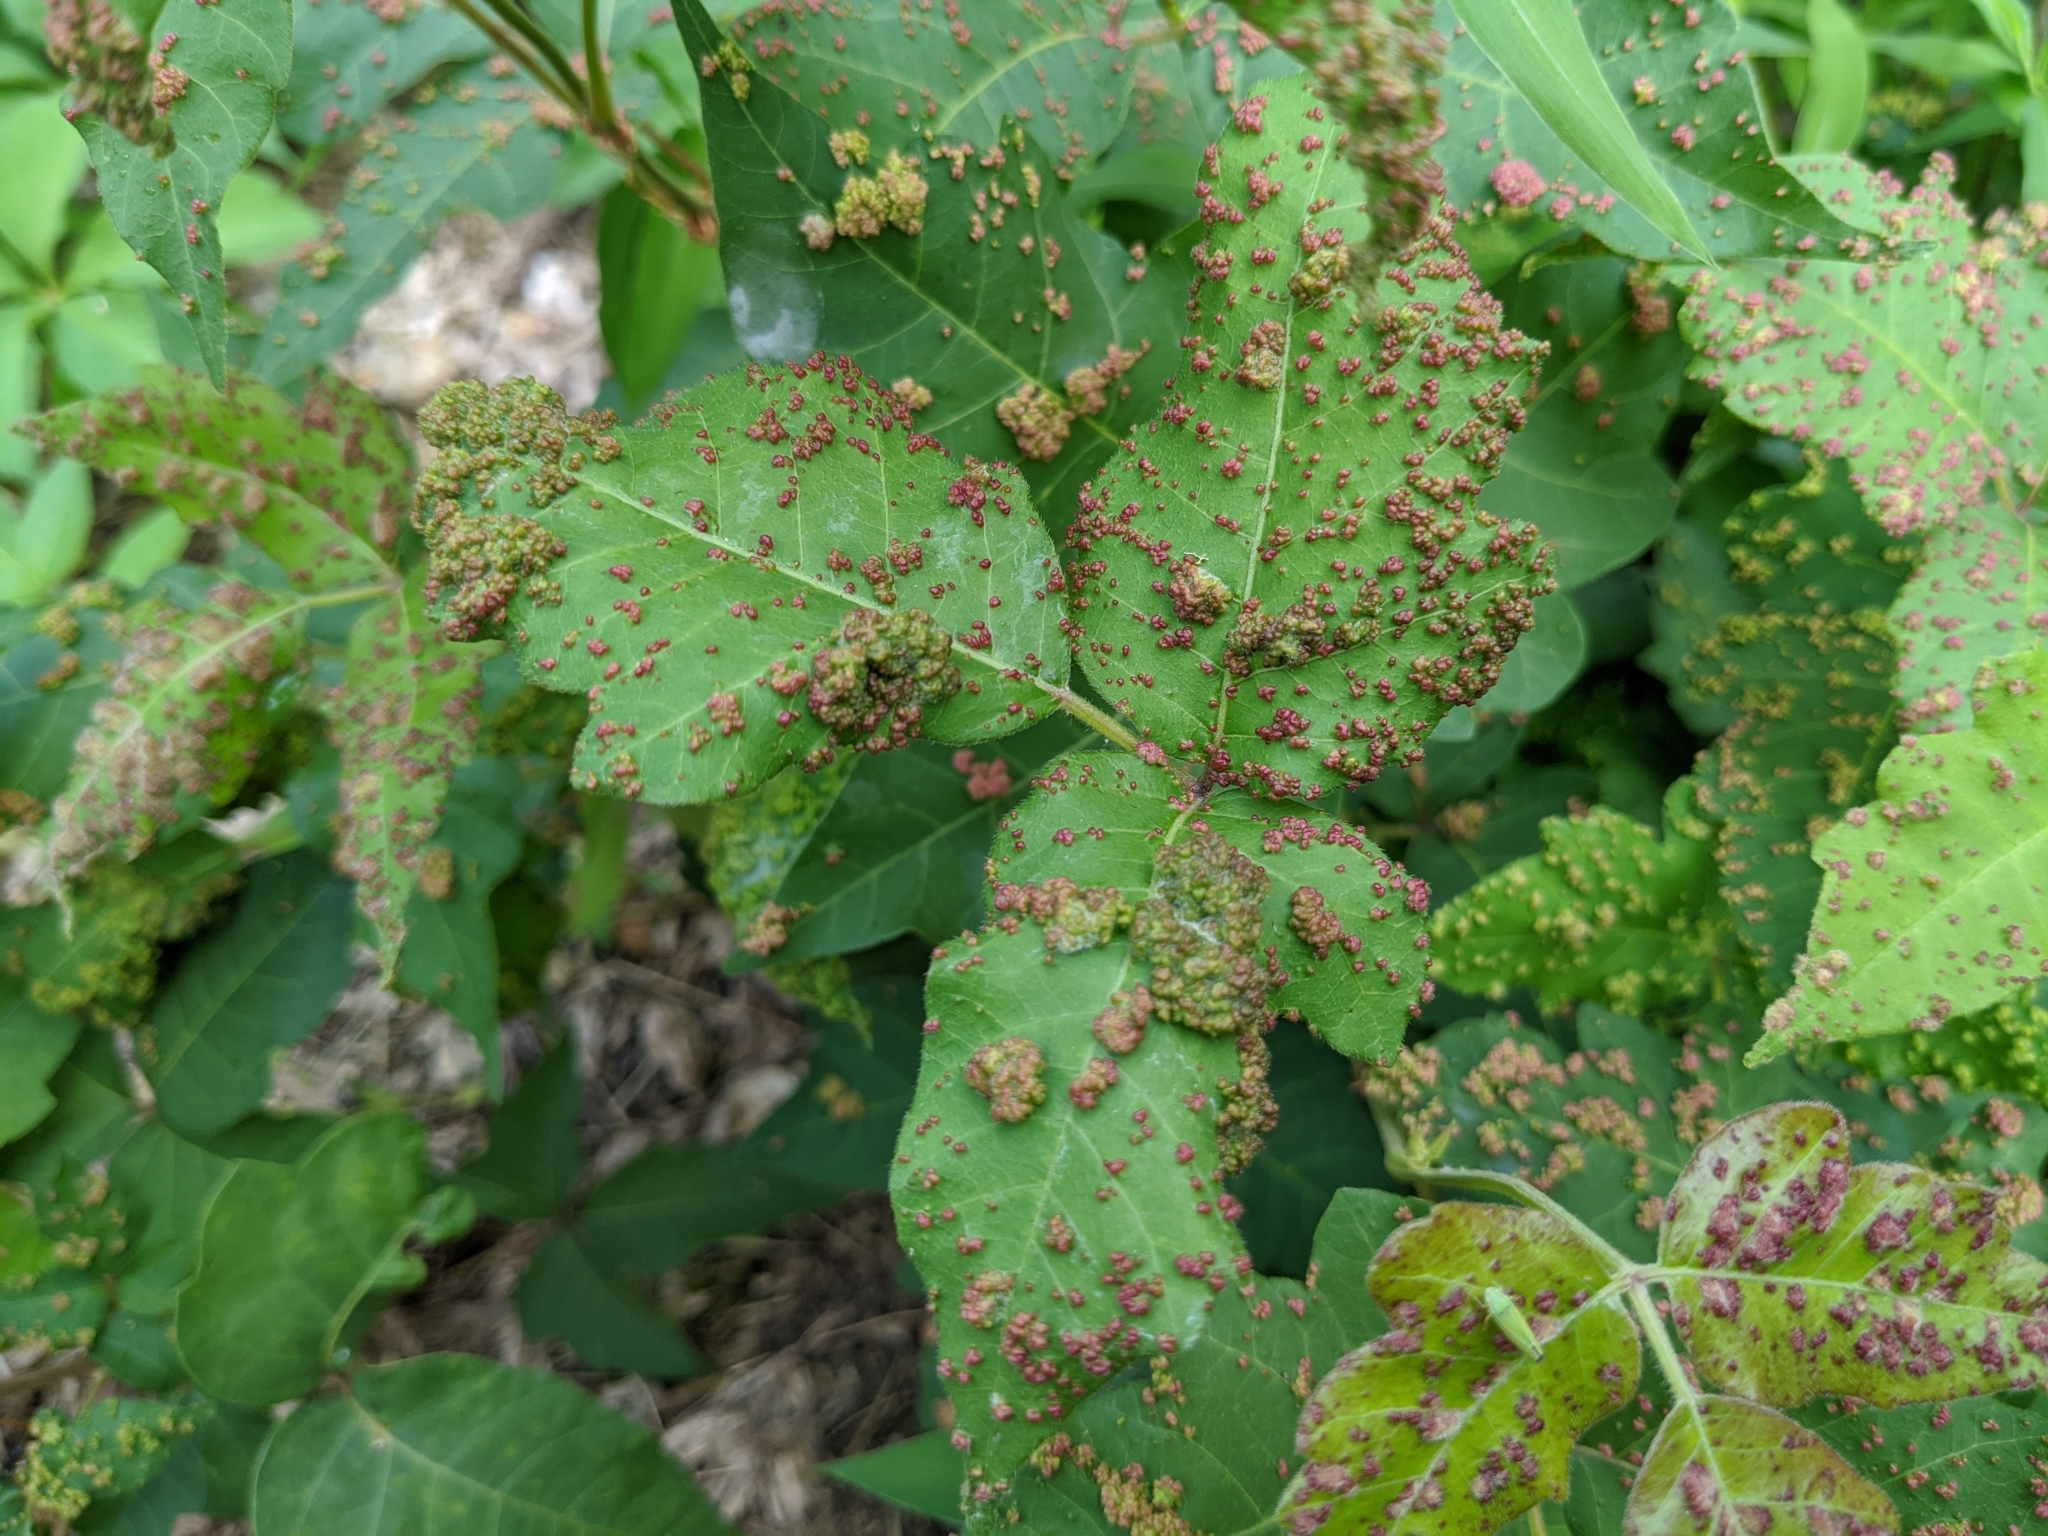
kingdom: Animalia
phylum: Arthropoda
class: Arachnida
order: Trombidiformes
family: Eriophyidae
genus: Aculops
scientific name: Aculops
